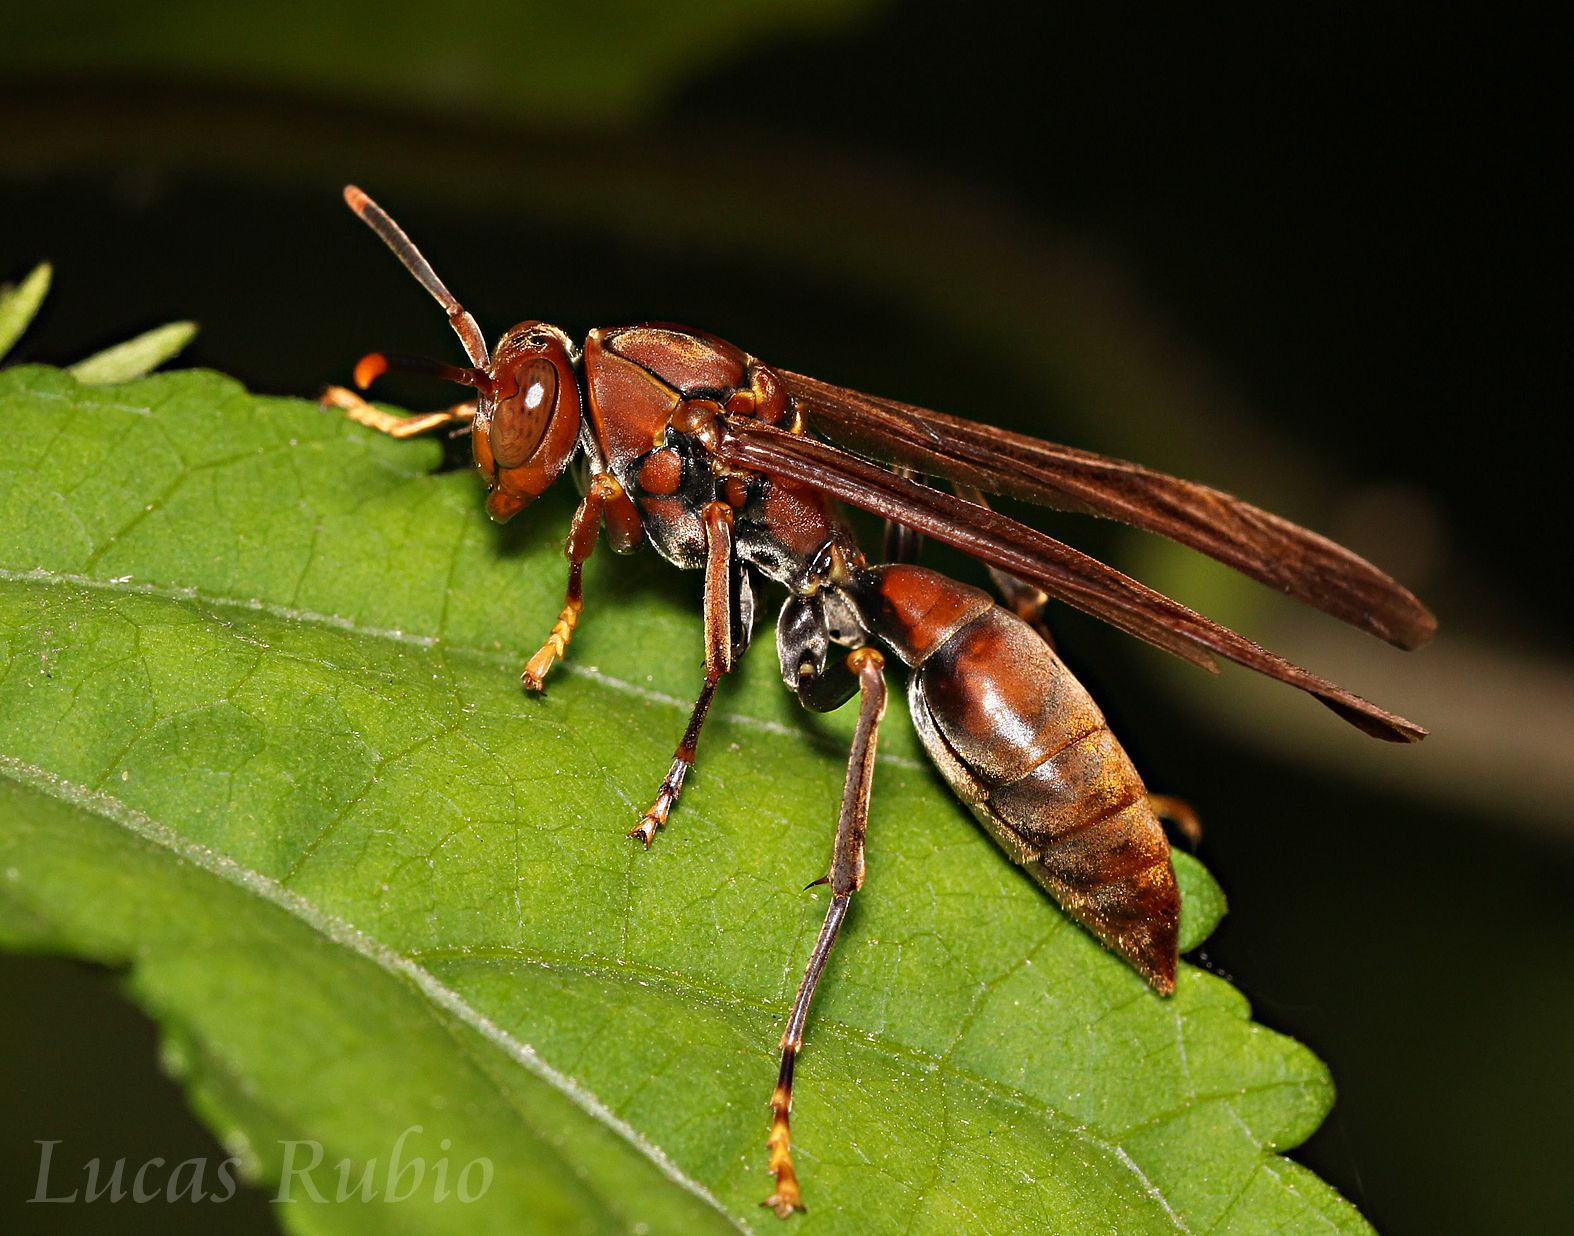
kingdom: Animalia
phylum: Arthropoda
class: Insecta
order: Hymenoptera
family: Pompilidae
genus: Aphanilopterus
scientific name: Aphanilopterus
